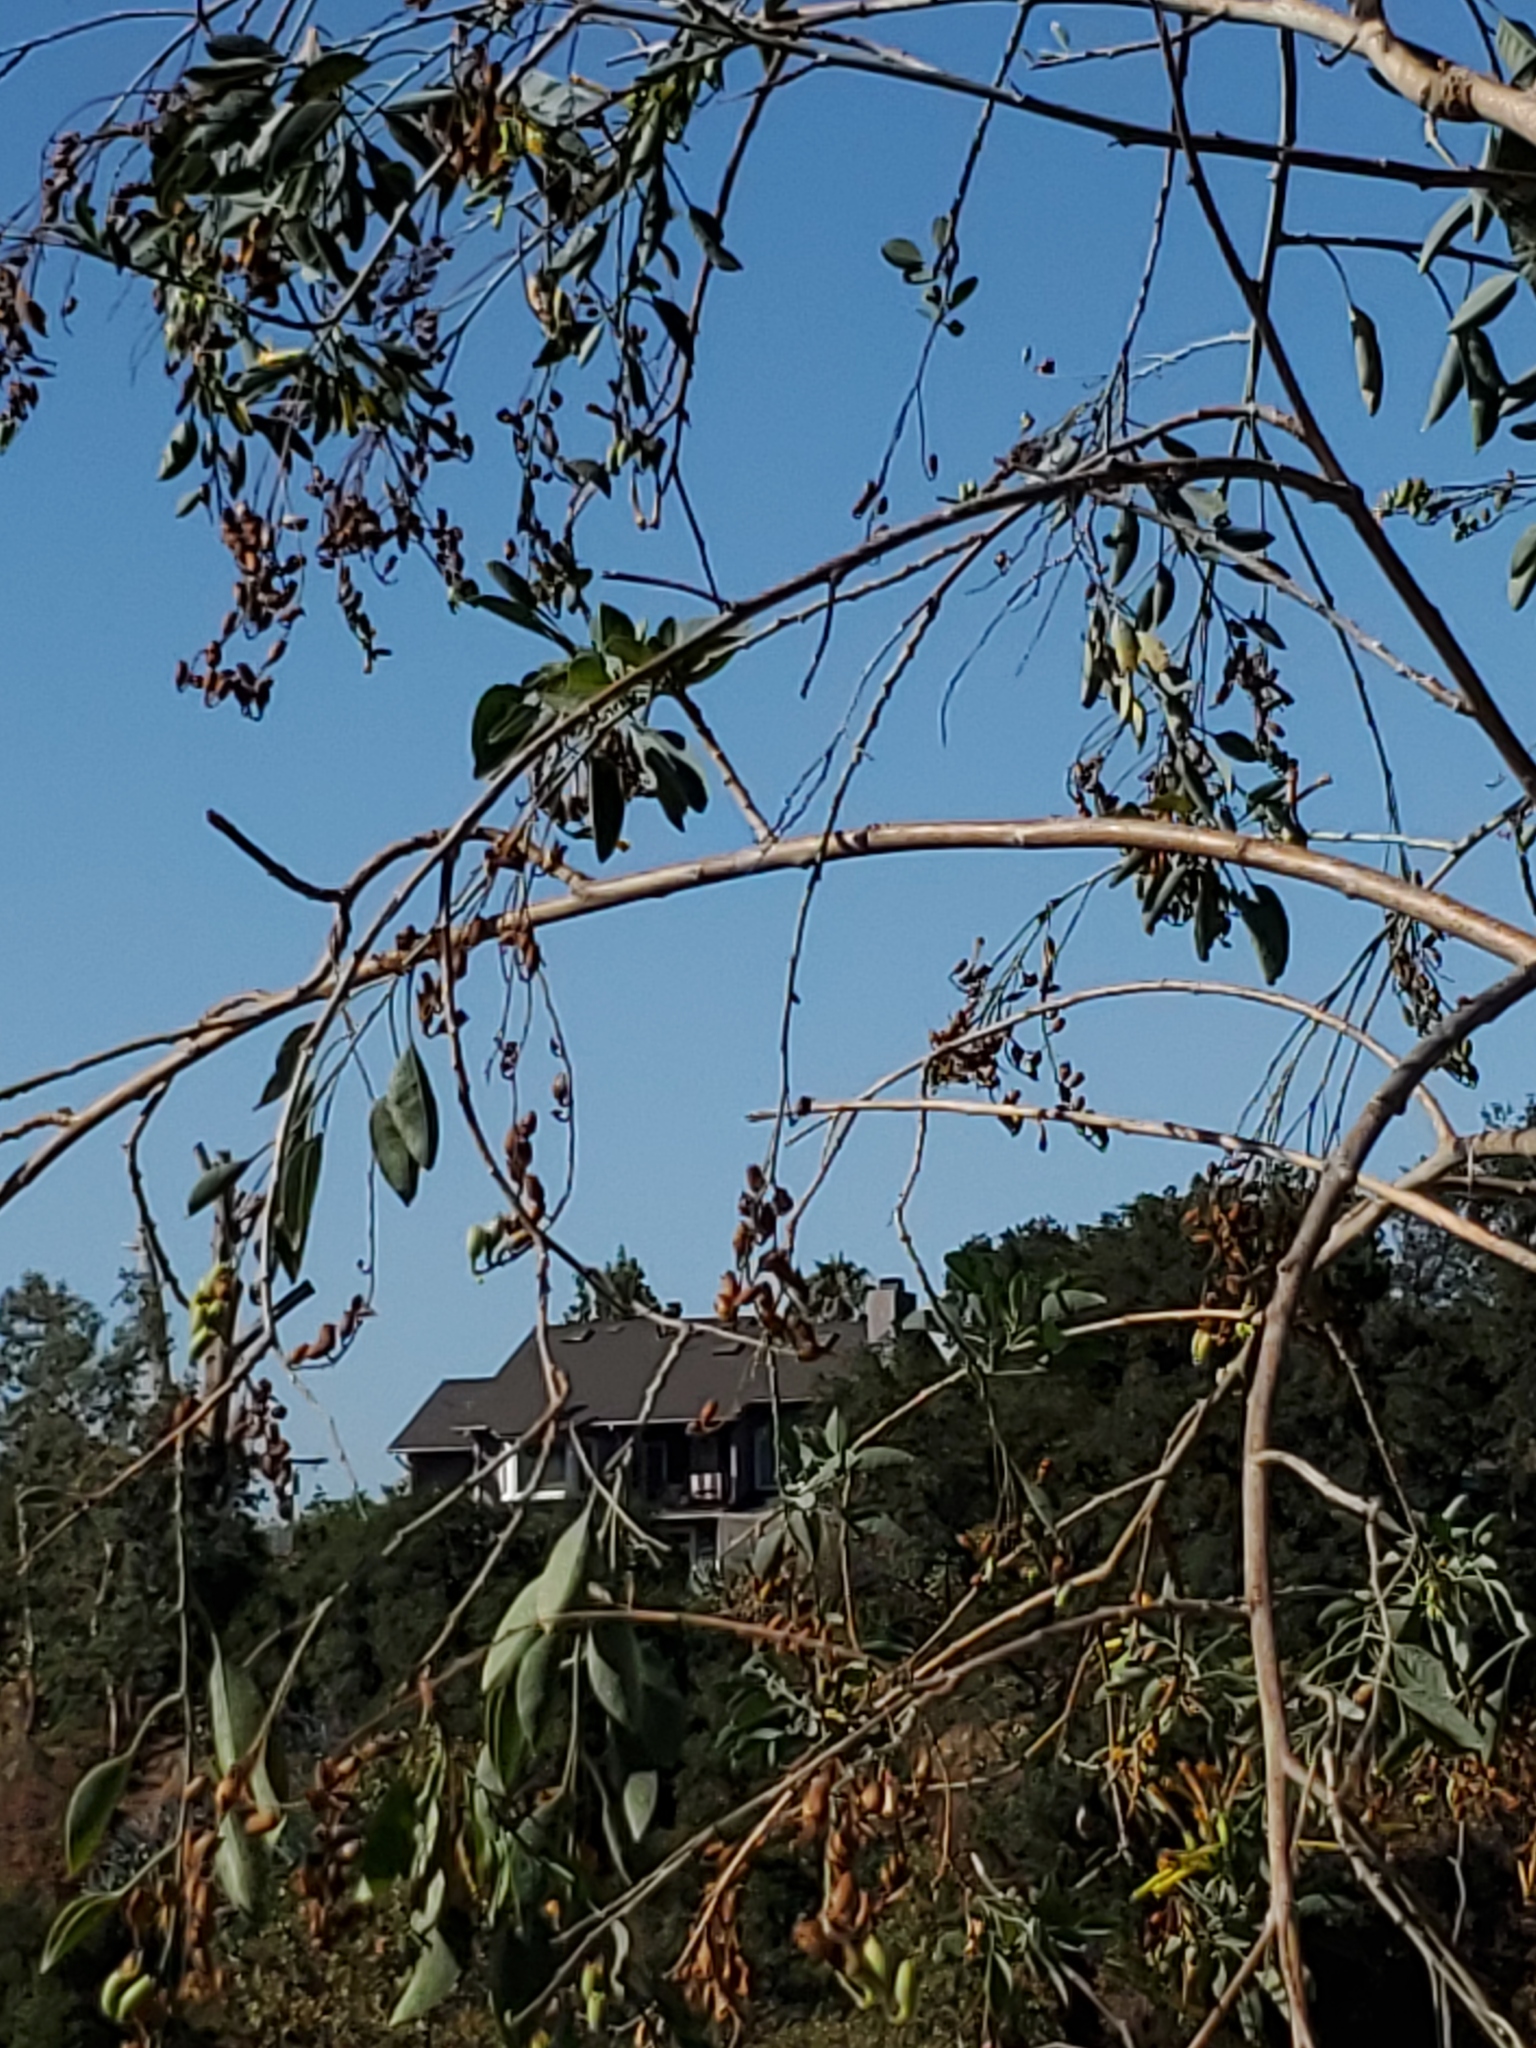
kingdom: Plantae
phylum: Tracheophyta
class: Magnoliopsida
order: Solanales
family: Solanaceae
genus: Nicotiana
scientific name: Nicotiana glauca
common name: Tree tobacco
